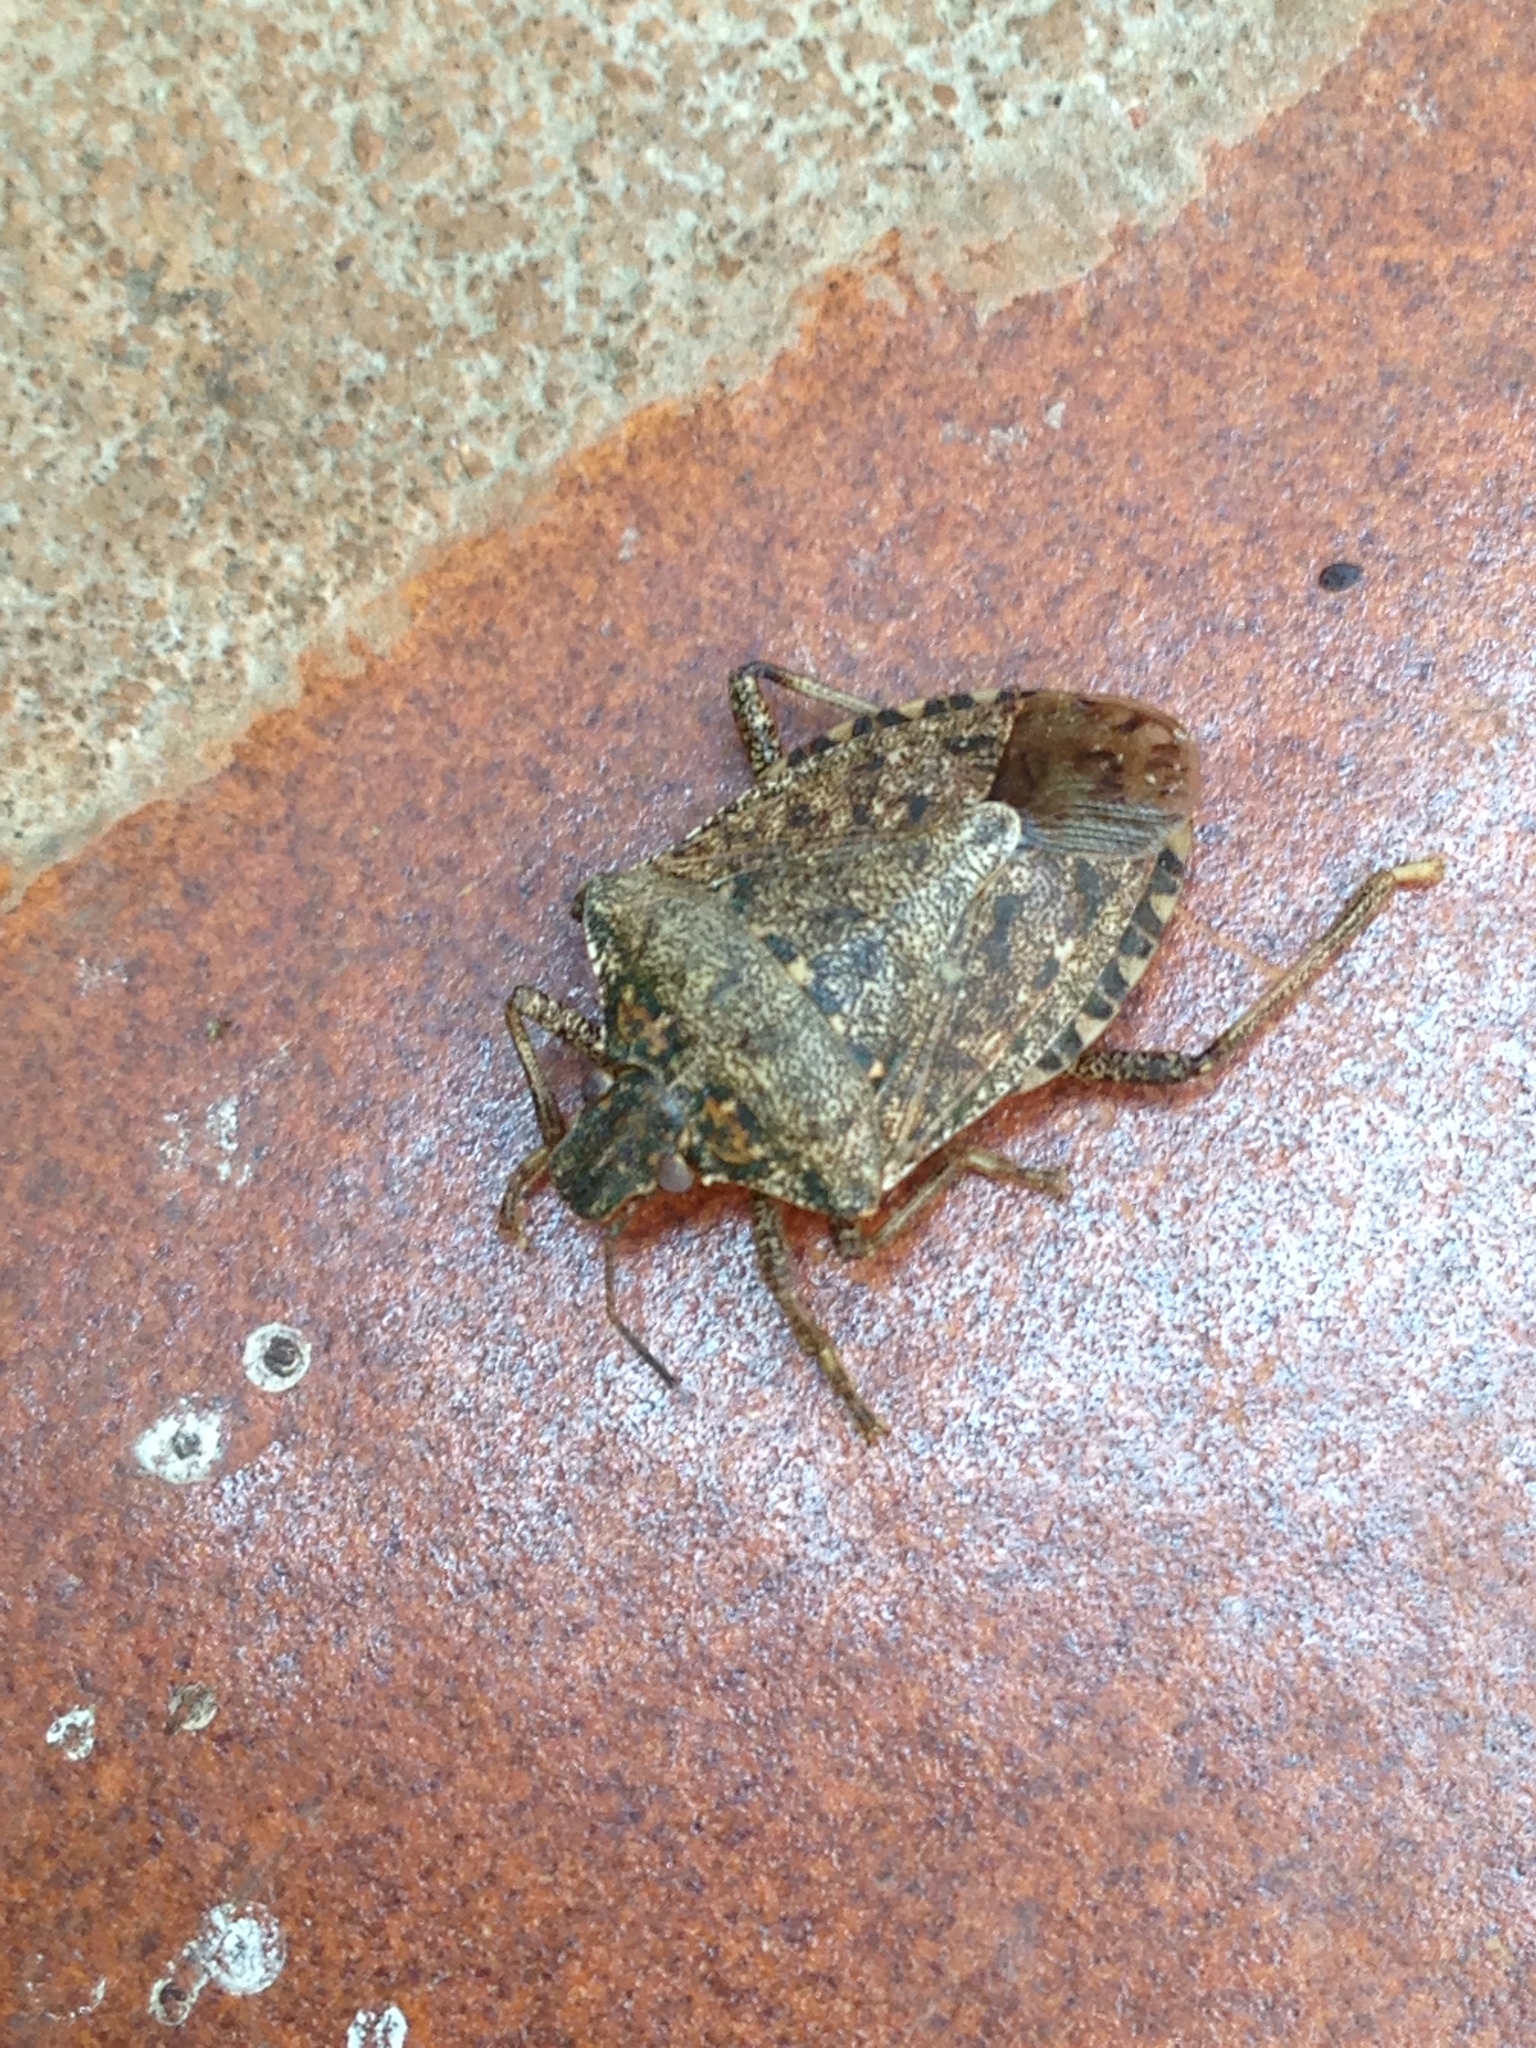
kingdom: Animalia
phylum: Arthropoda
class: Insecta
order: Hemiptera
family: Pentatomidae
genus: Halyomorpha
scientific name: Halyomorpha halys
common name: Brown marmorated stink bug
